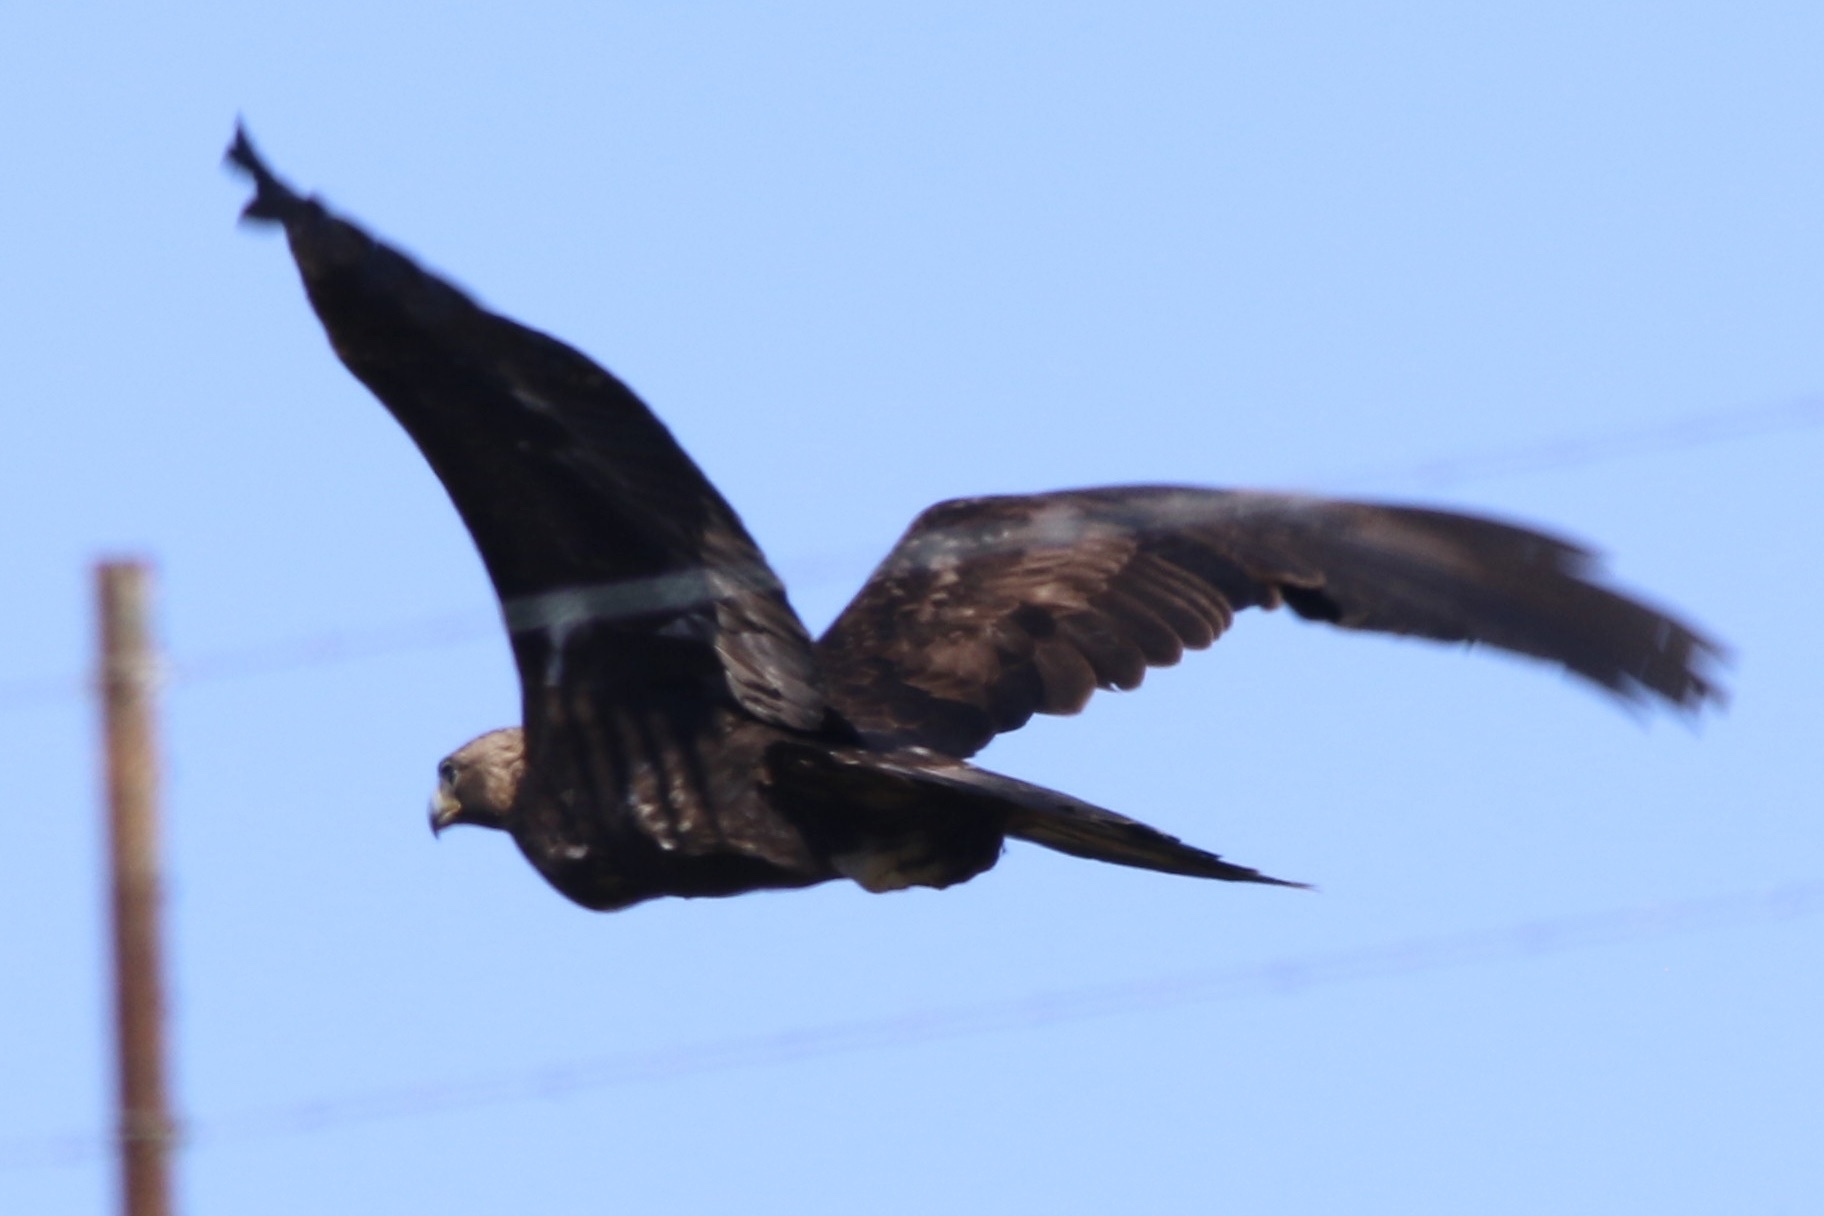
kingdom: Animalia
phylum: Chordata
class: Aves
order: Accipitriformes
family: Accipitridae
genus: Aquila
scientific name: Aquila chrysaetos
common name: Golden eagle
